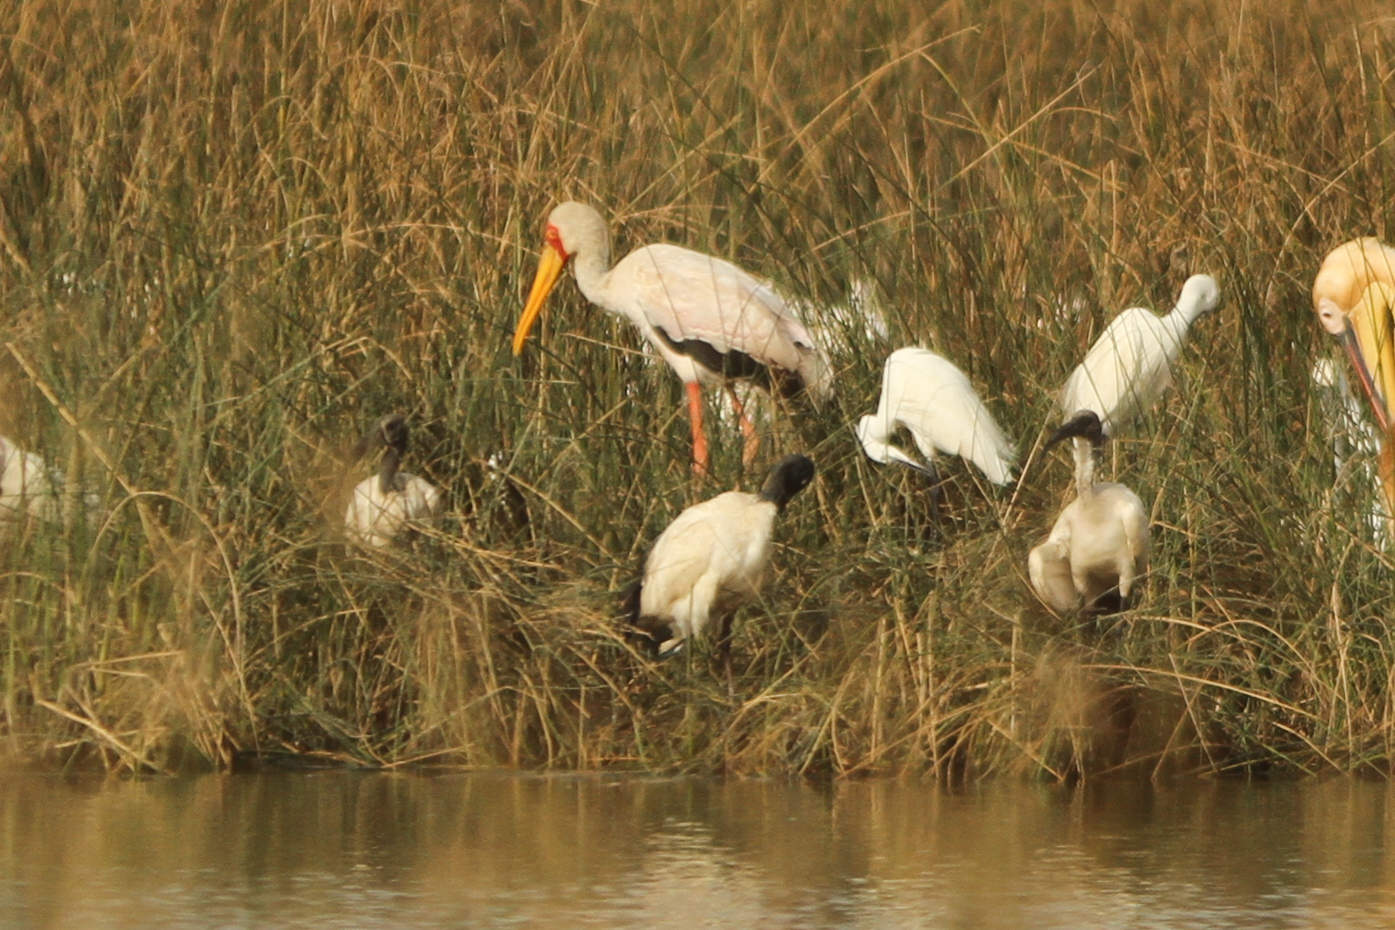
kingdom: Animalia
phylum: Chordata
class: Aves
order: Ciconiiformes
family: Ciconiidae
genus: Mycteria
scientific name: Mycteria ibis
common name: Yellow-billed stork
